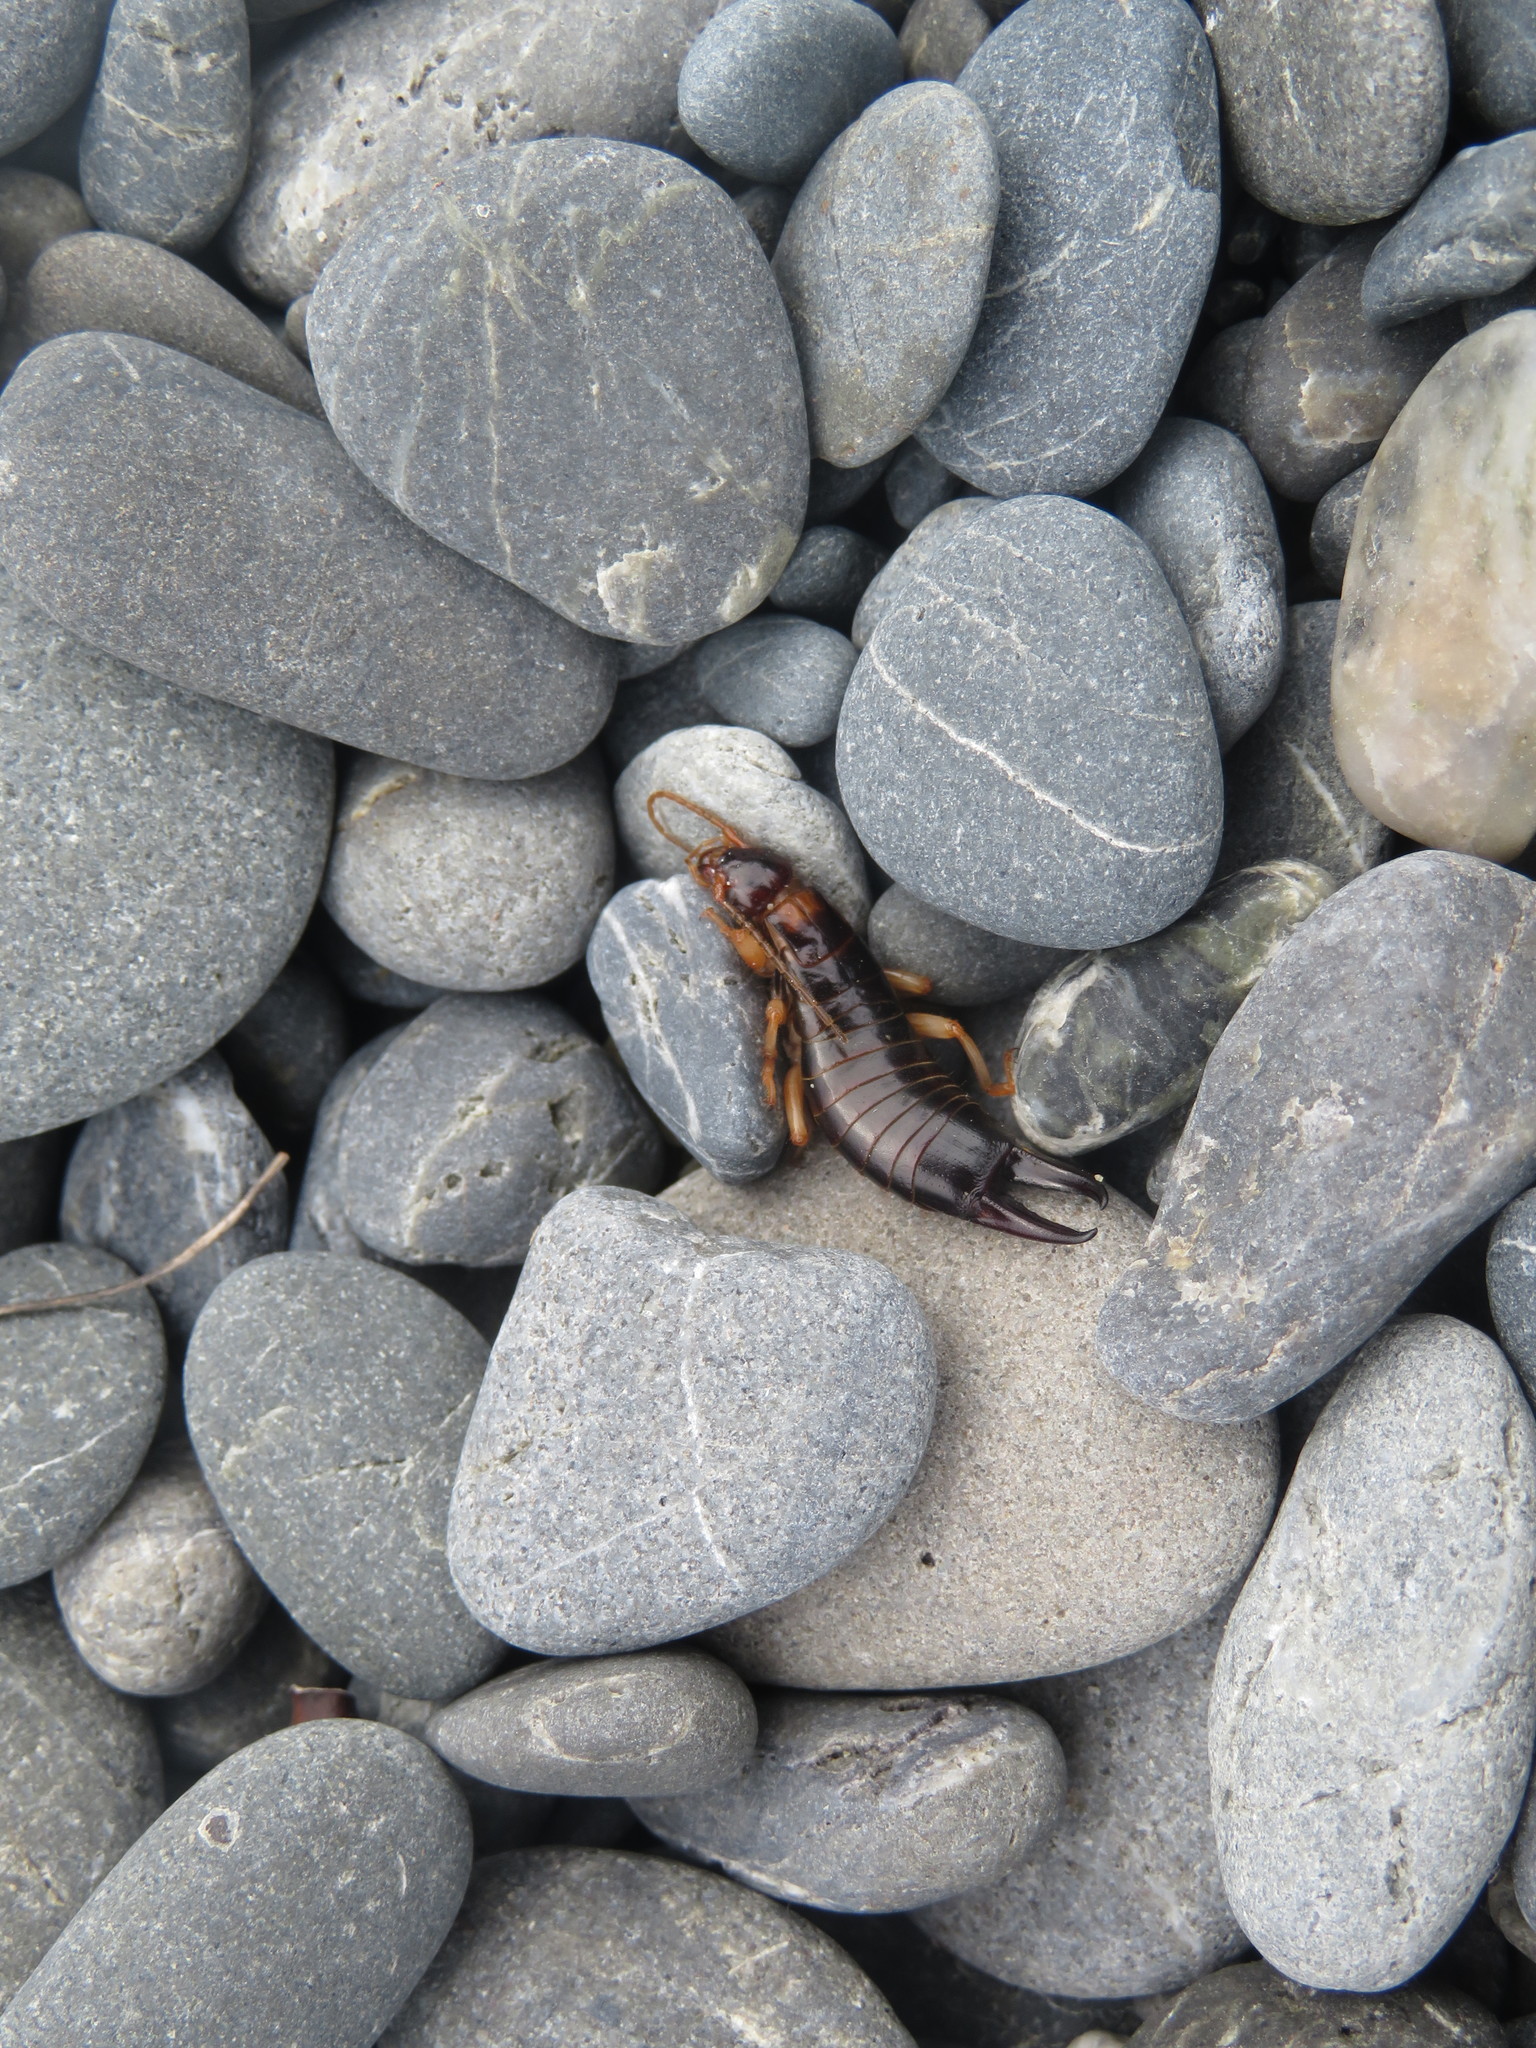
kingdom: Animalia
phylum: Arthropoda
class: Insecta
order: Dermaptera
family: Anisolabididae
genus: Anisolabis
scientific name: Anisolabis littorea
